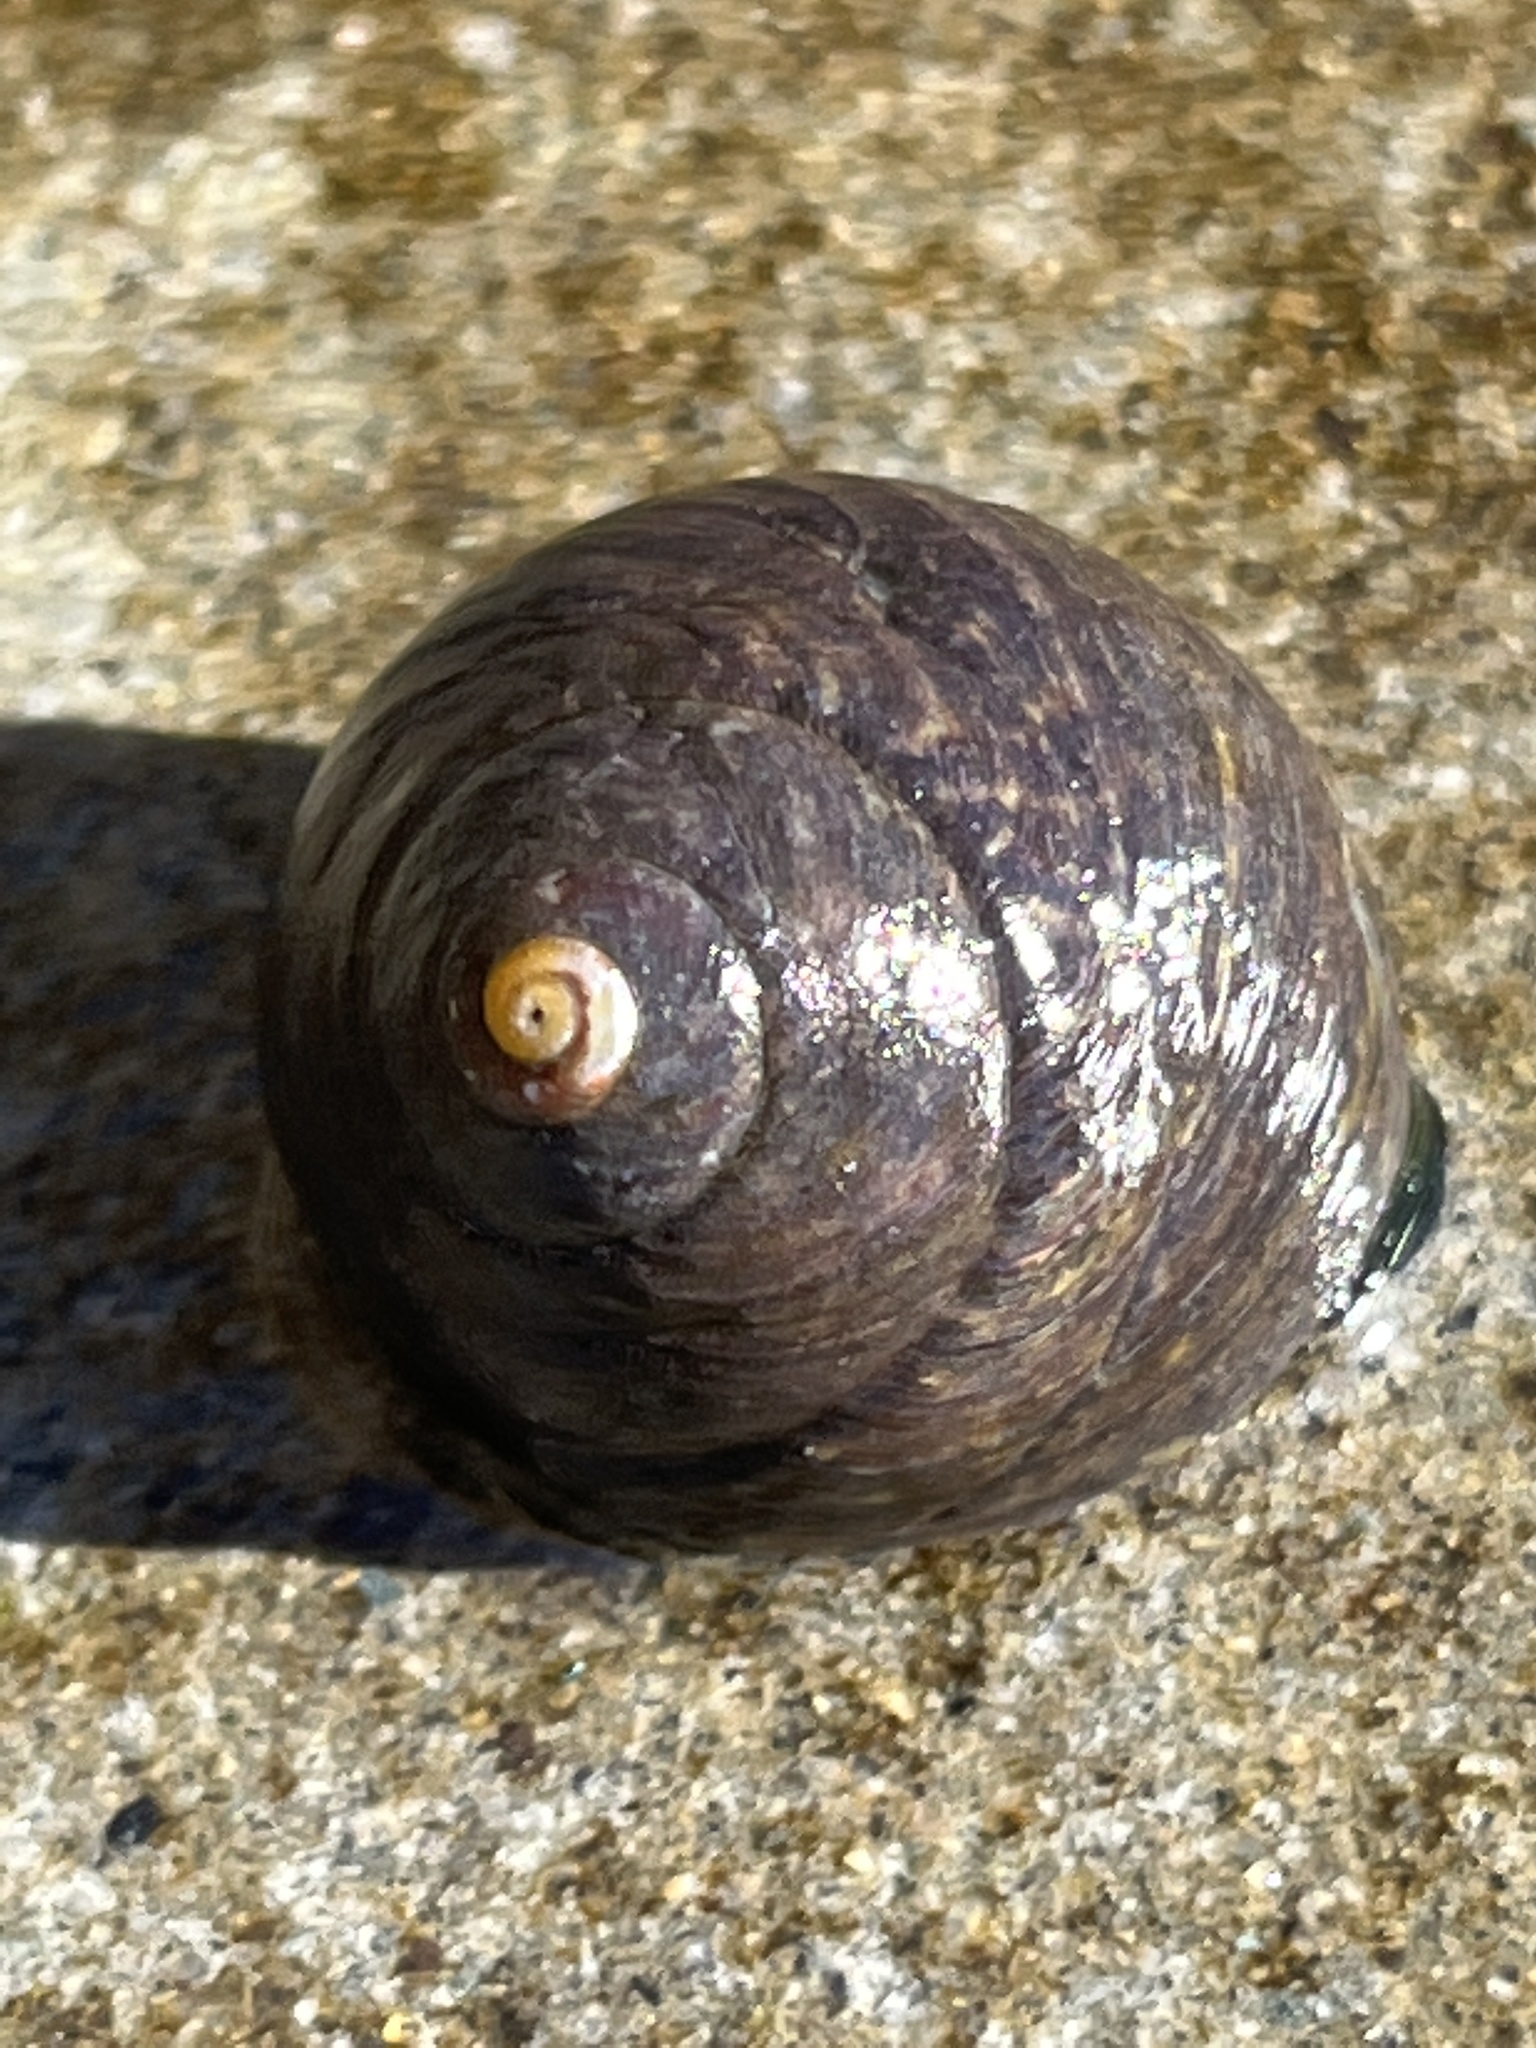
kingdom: Animalia
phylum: Mollusca
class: Gastropoda
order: Trochida
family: Tegulidae
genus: Tegula
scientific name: Tegula funebralis
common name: Black tegula
